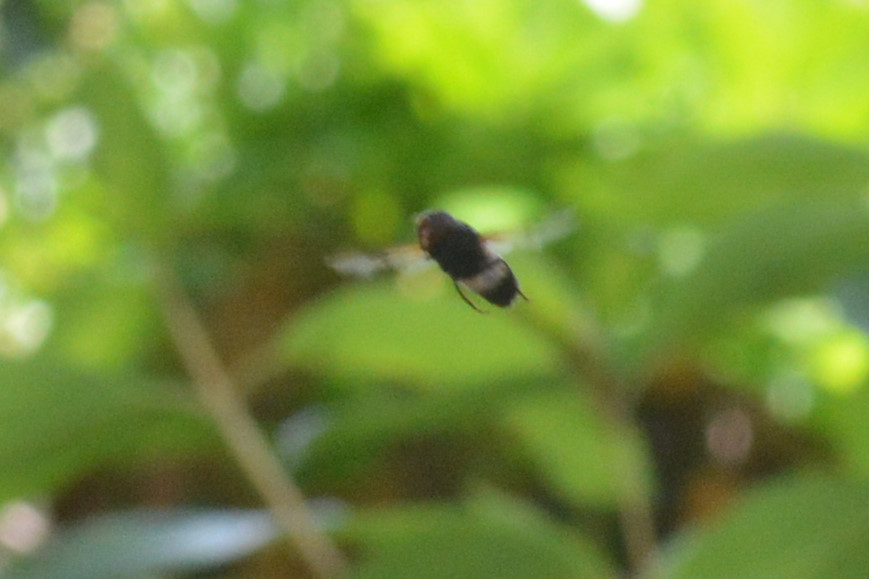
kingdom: Animalia
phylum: Arthropoda
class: Insecta
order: Diptera
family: Syrphidae
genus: Volucella
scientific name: Volucella pellucens
